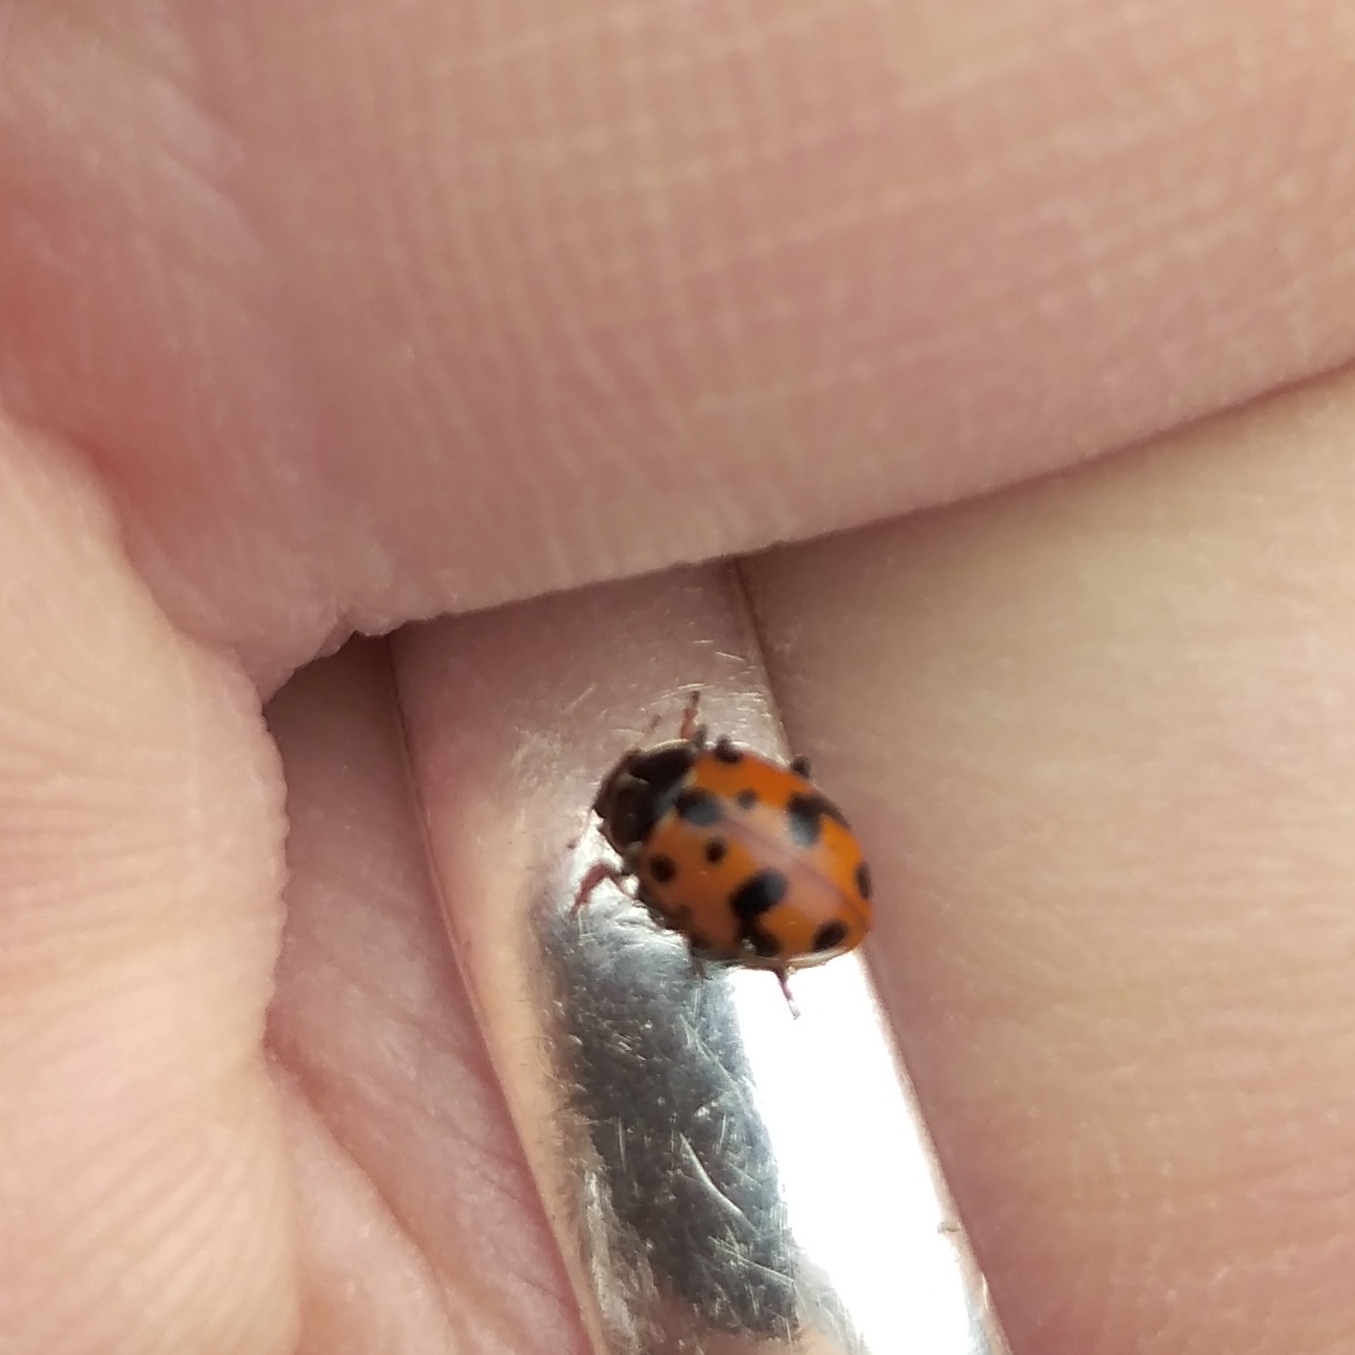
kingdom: Animalia
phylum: Arthropoda
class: Insecta
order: Coleoptera
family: Coccinellidae
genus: Hippodamia
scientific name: Hippodamia variegata
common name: Ladybird beetle
